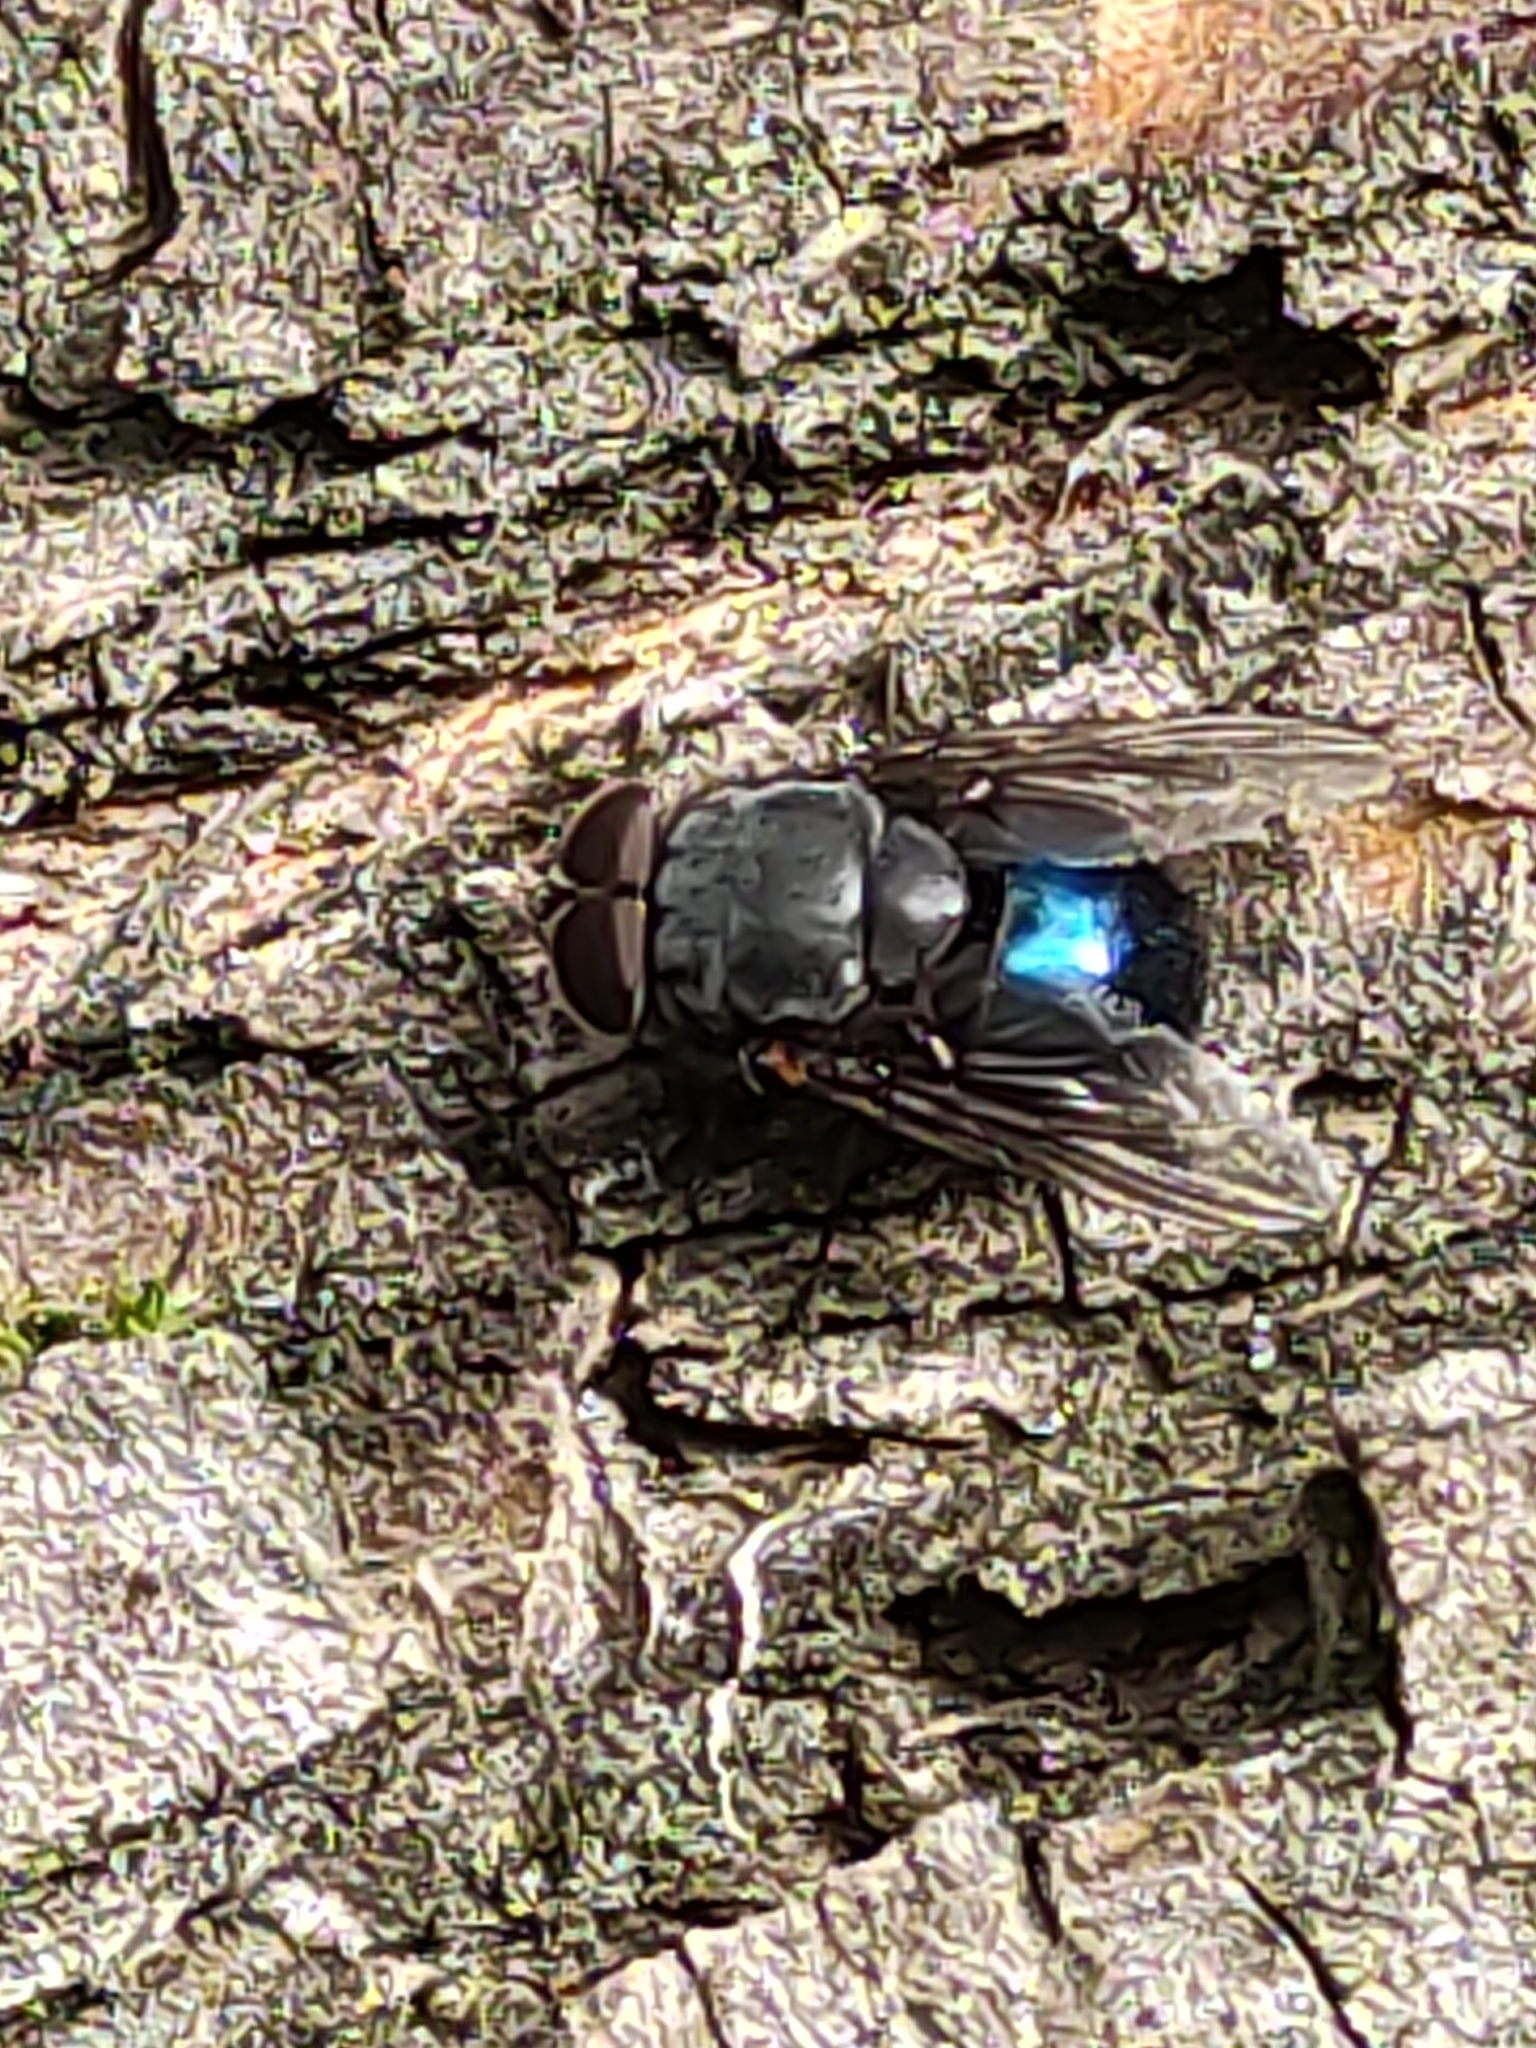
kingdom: Animalia
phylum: Arthropoda
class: Insecta
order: Diptera
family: Calliphoridae
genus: Calliphora
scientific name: Calliphora quadrimaculata
